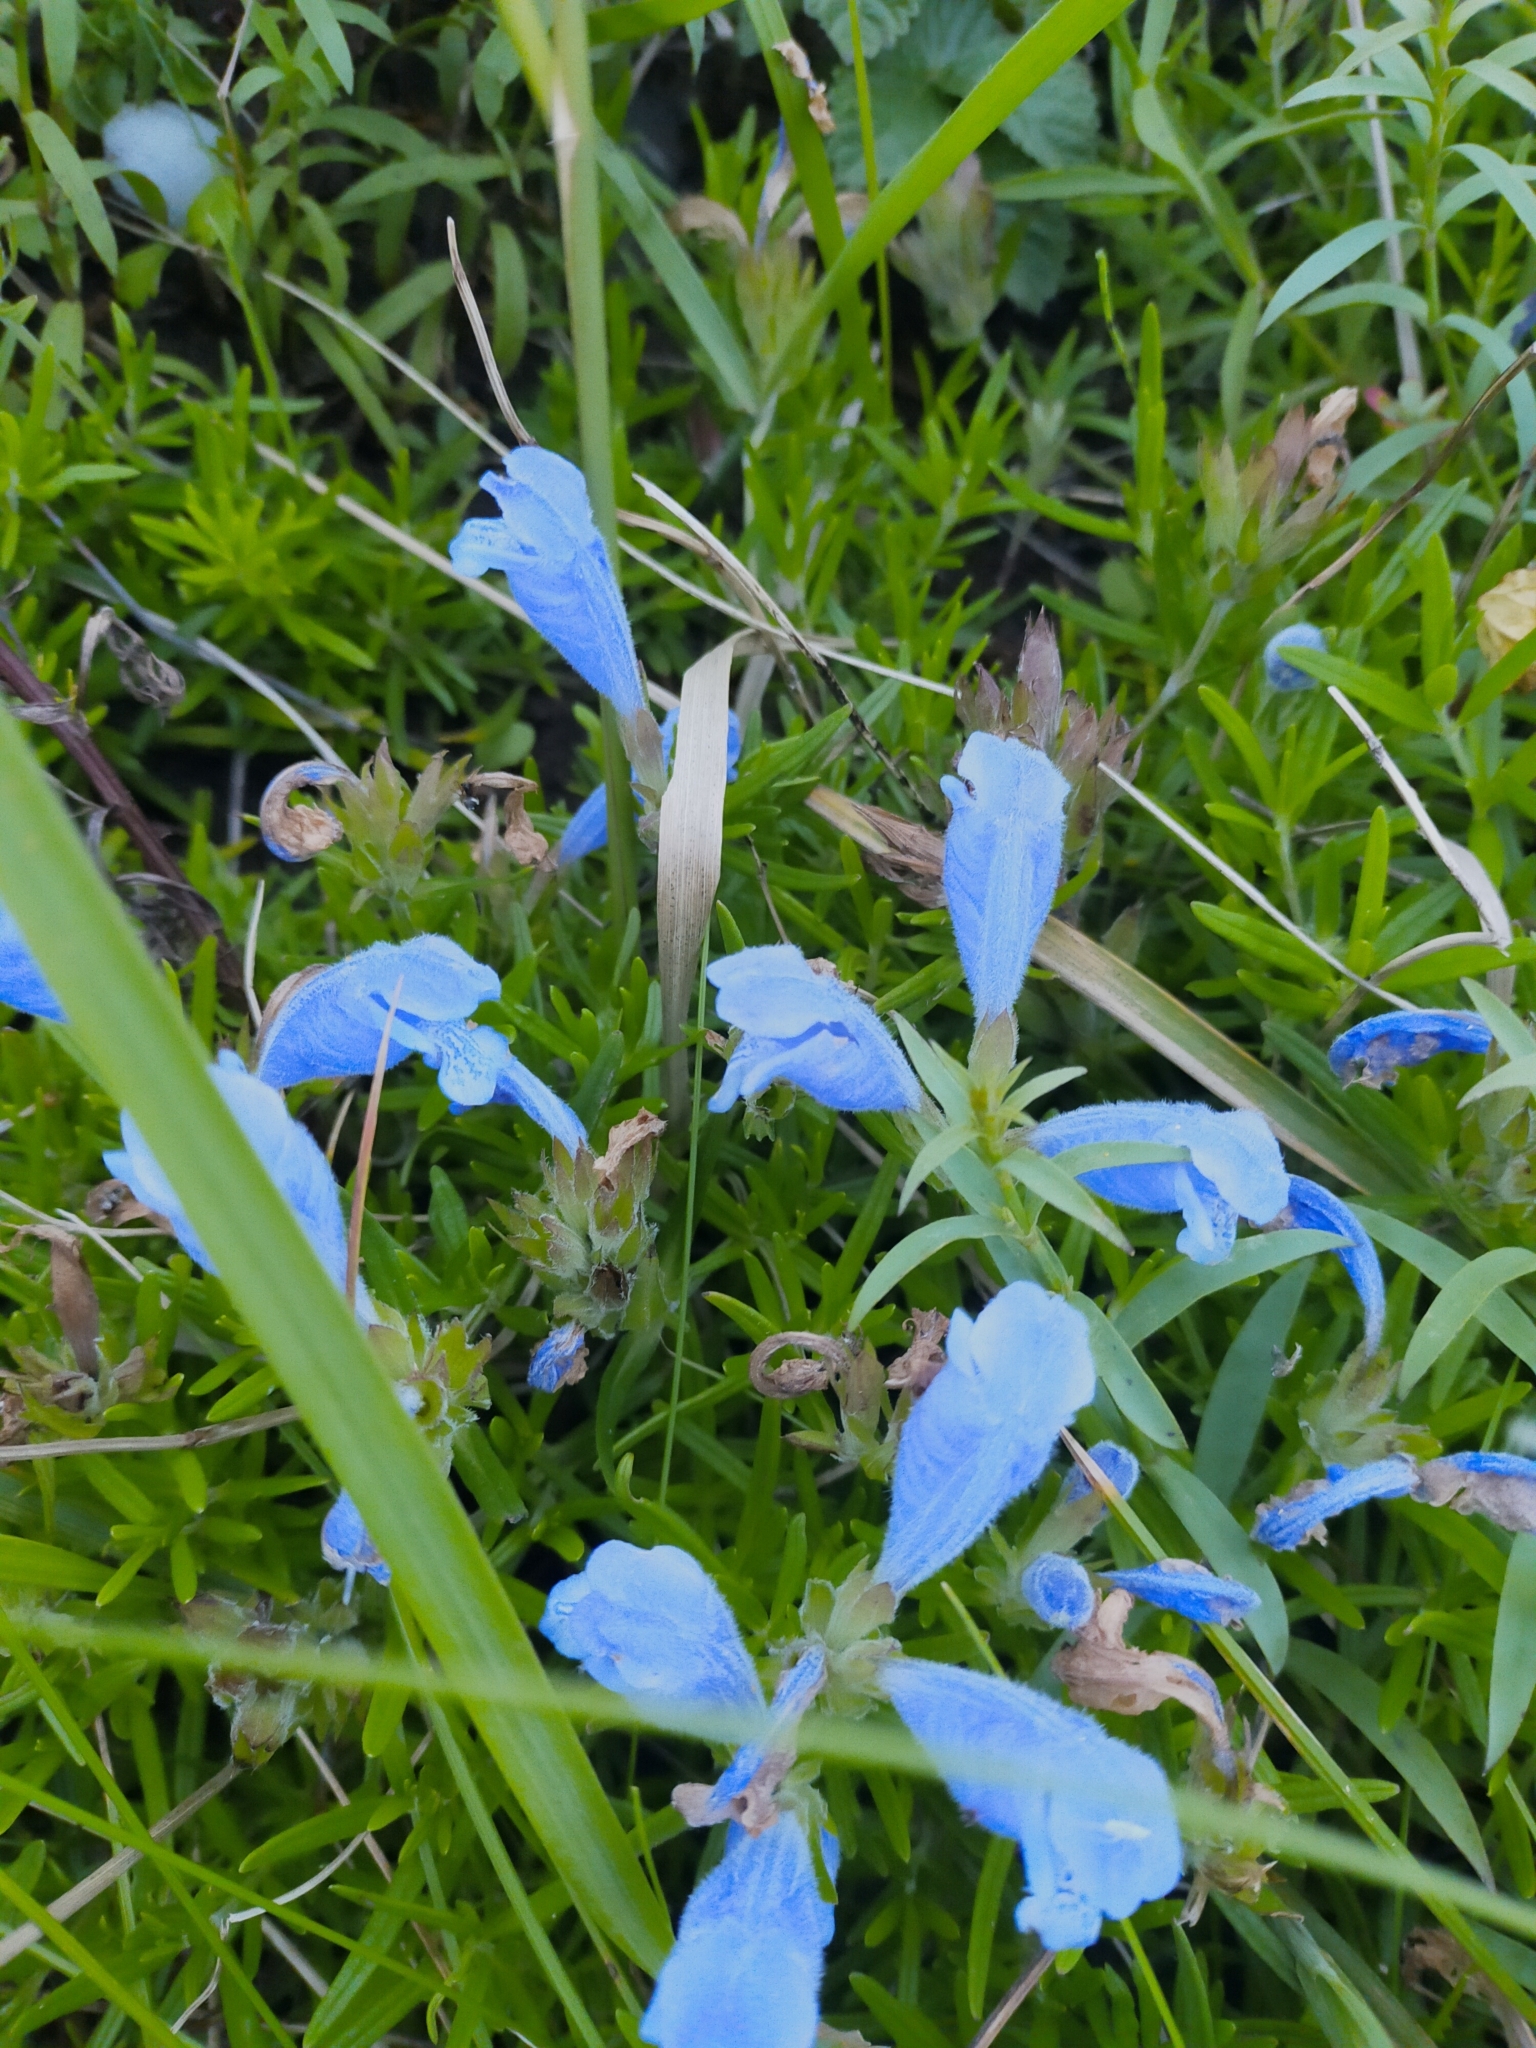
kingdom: Plantae
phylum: Tracheophyta
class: Magnoliopsida
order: Lamiales
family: Lamiaceae
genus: Dracocephalum
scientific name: Dracocephalum charkeviczii
